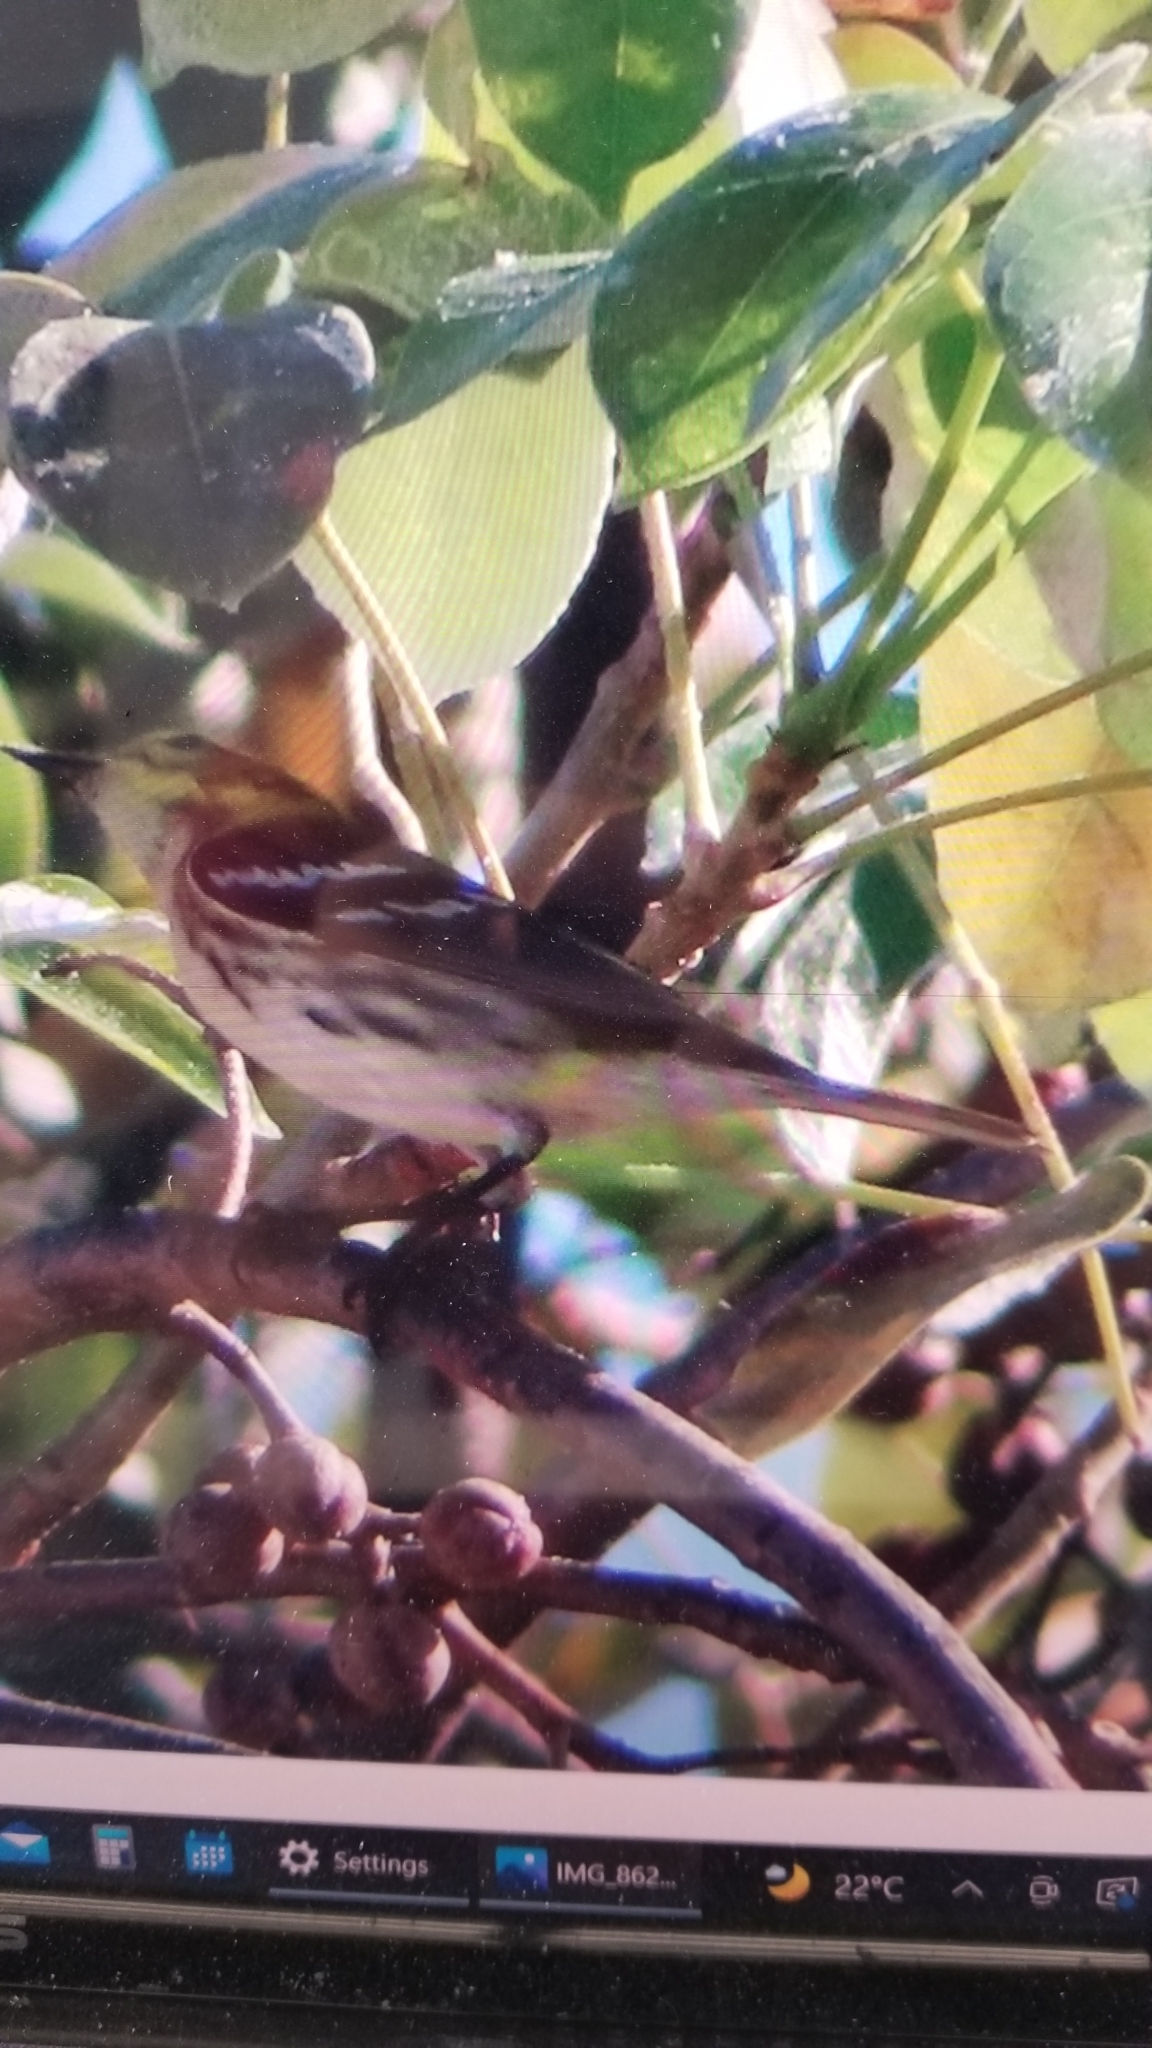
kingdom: Animalia
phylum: Chordata
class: Aves
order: Passeriformes
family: Parulidae
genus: Setophaga
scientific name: Setophaga virens
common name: Black-throated green warbler
